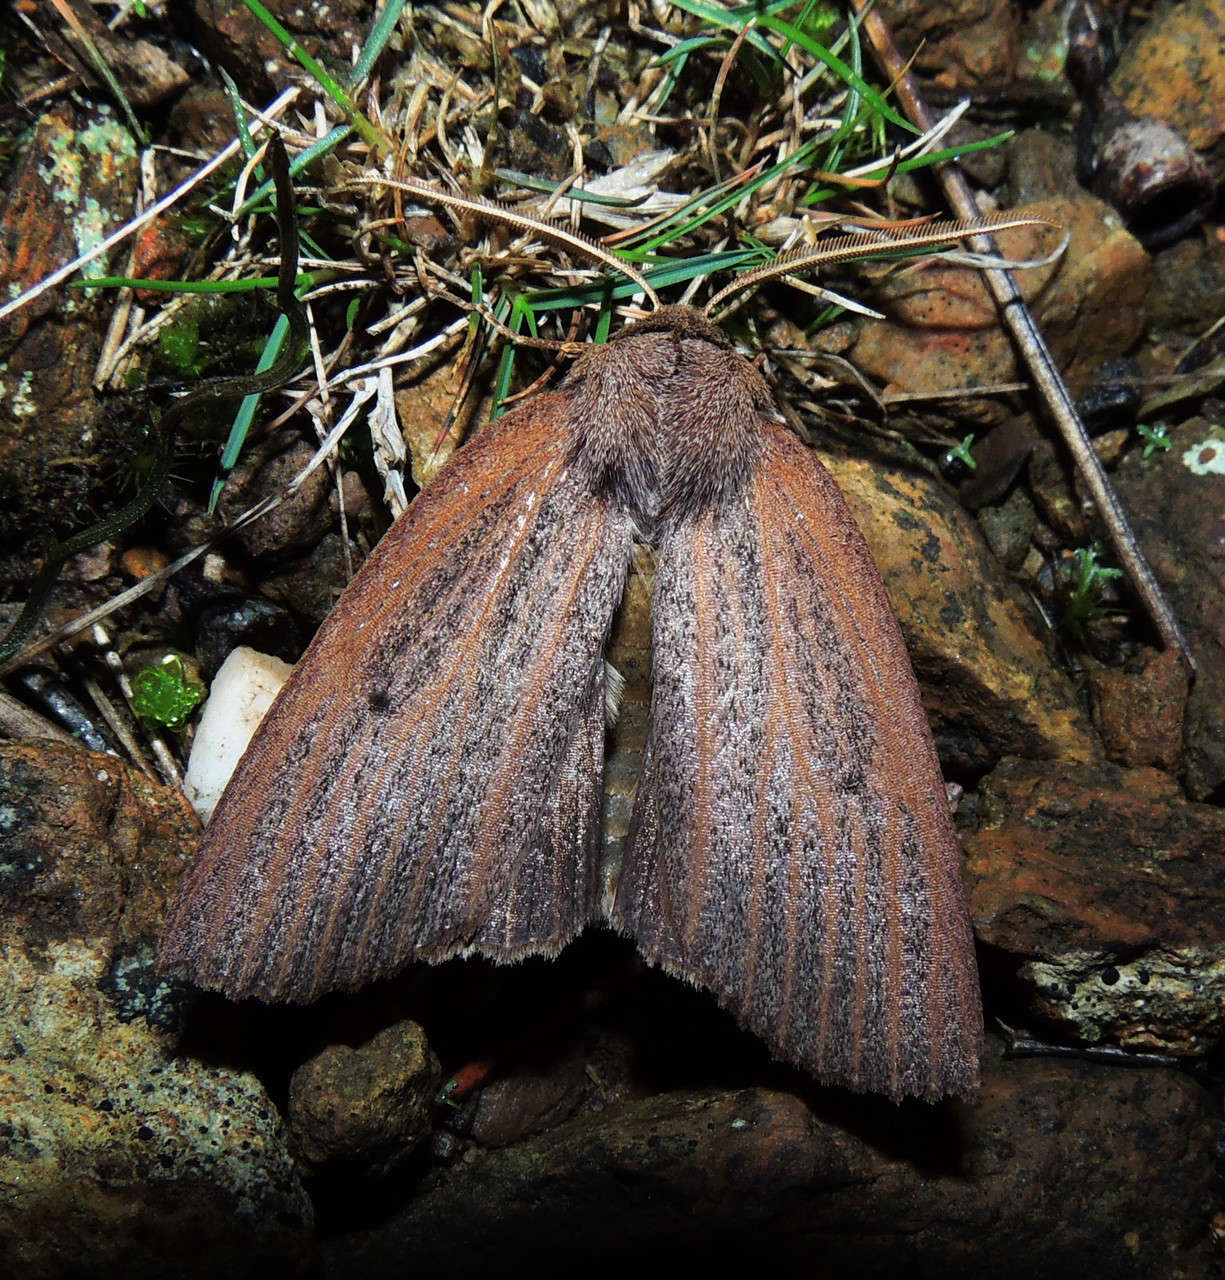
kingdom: Animalia
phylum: Arthropoda
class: Insecta
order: Lepidoptera
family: Geometridae
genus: Paralaea
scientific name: Paralaea porphyrinaria
